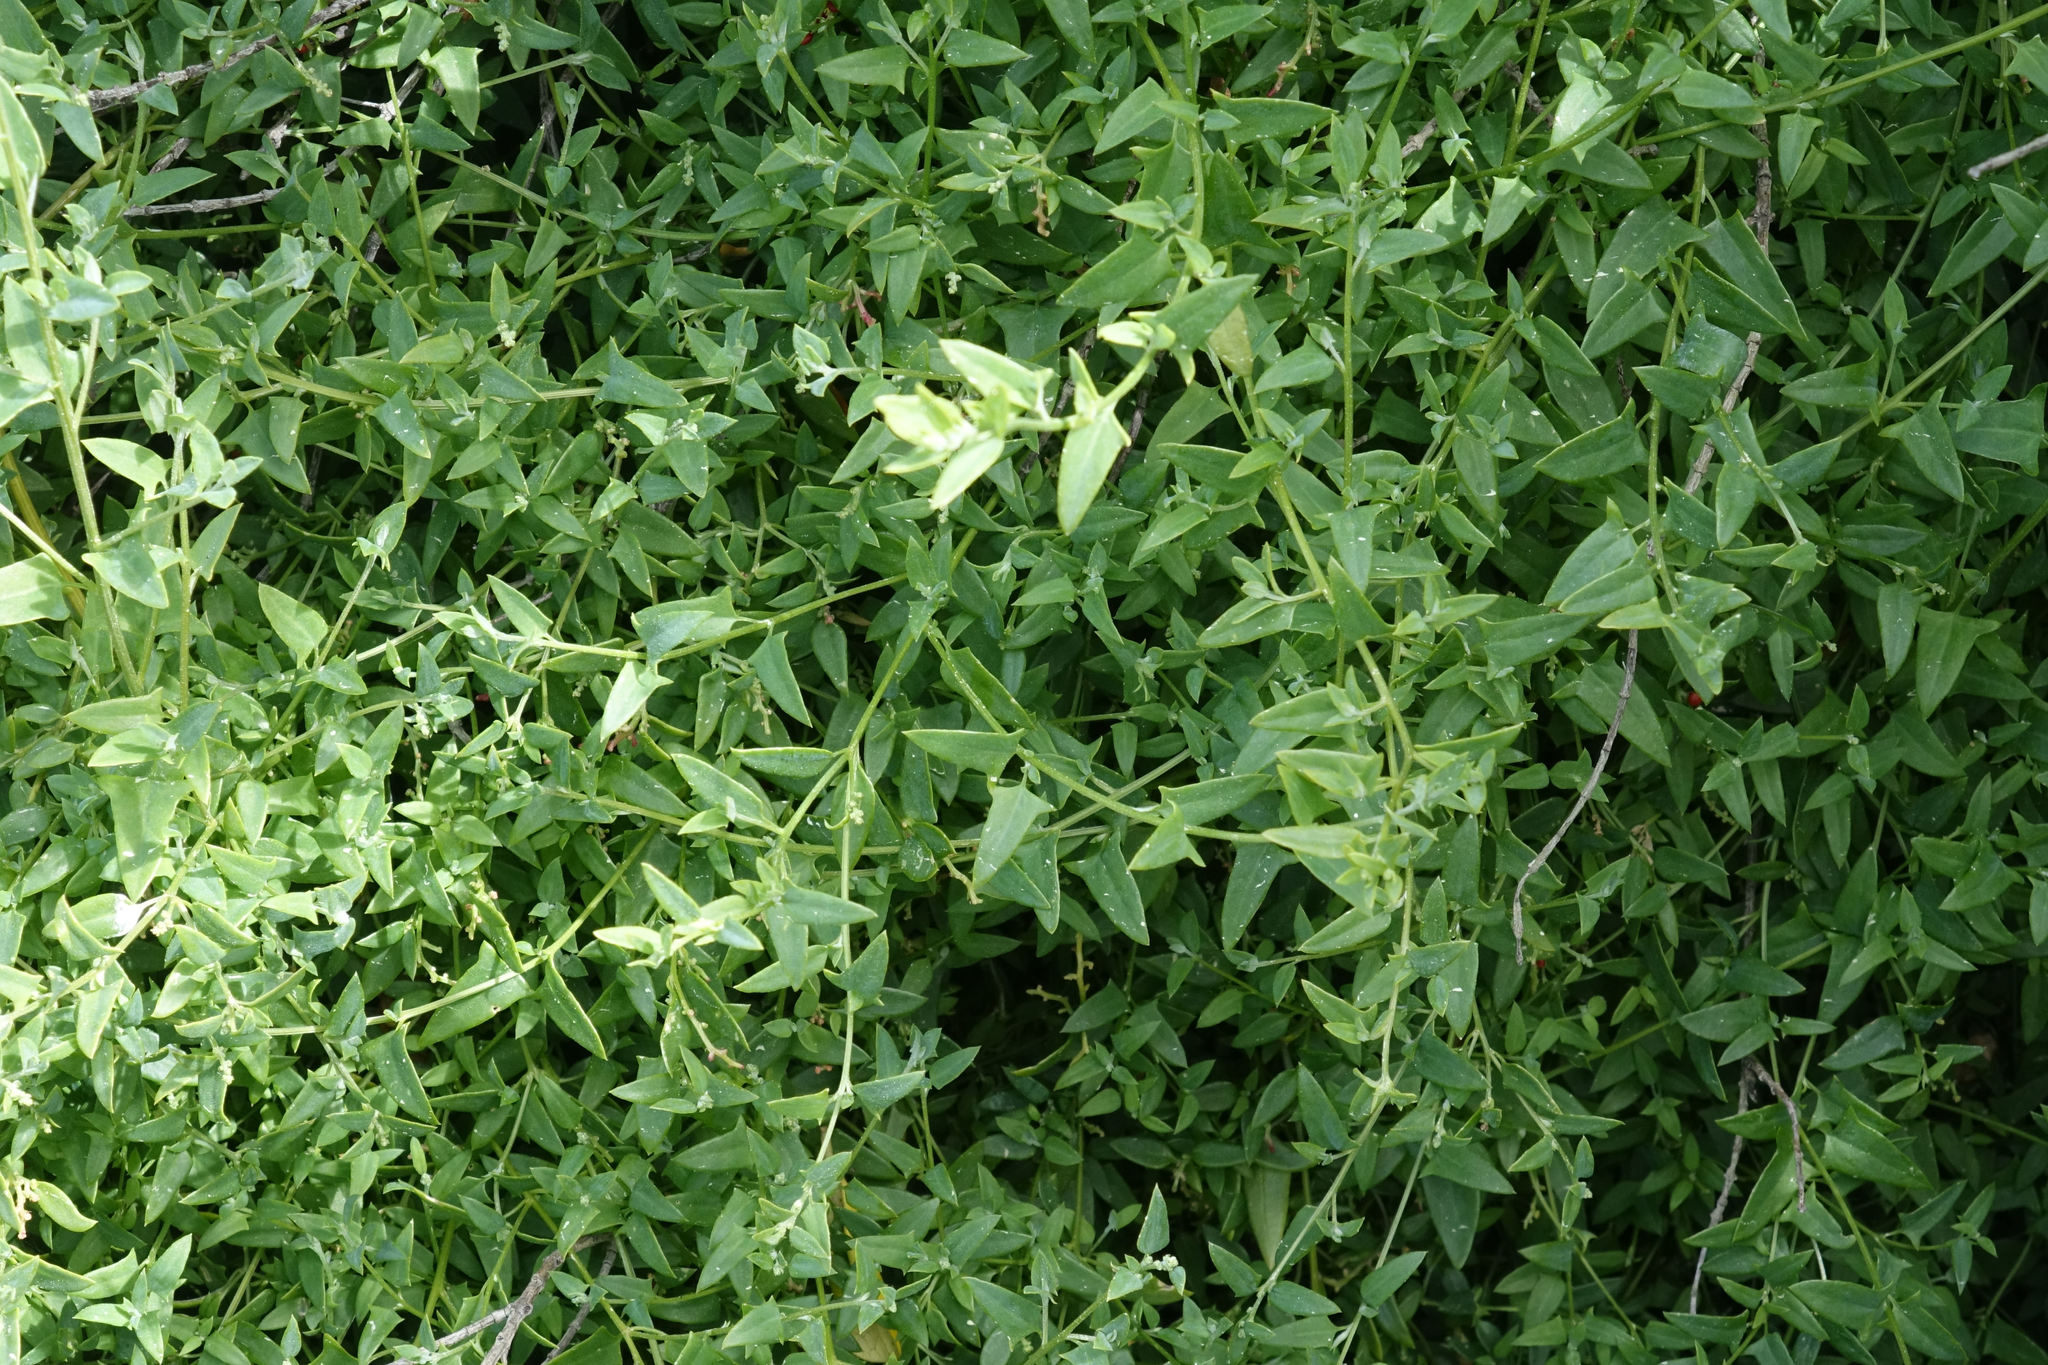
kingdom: Plantae
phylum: Tracheophyta
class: Magnoliopsida
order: Caryophyllales
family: Amaranthaceae
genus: Chenopodium
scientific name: Chenopodium nutans
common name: Climbing-saltbush
